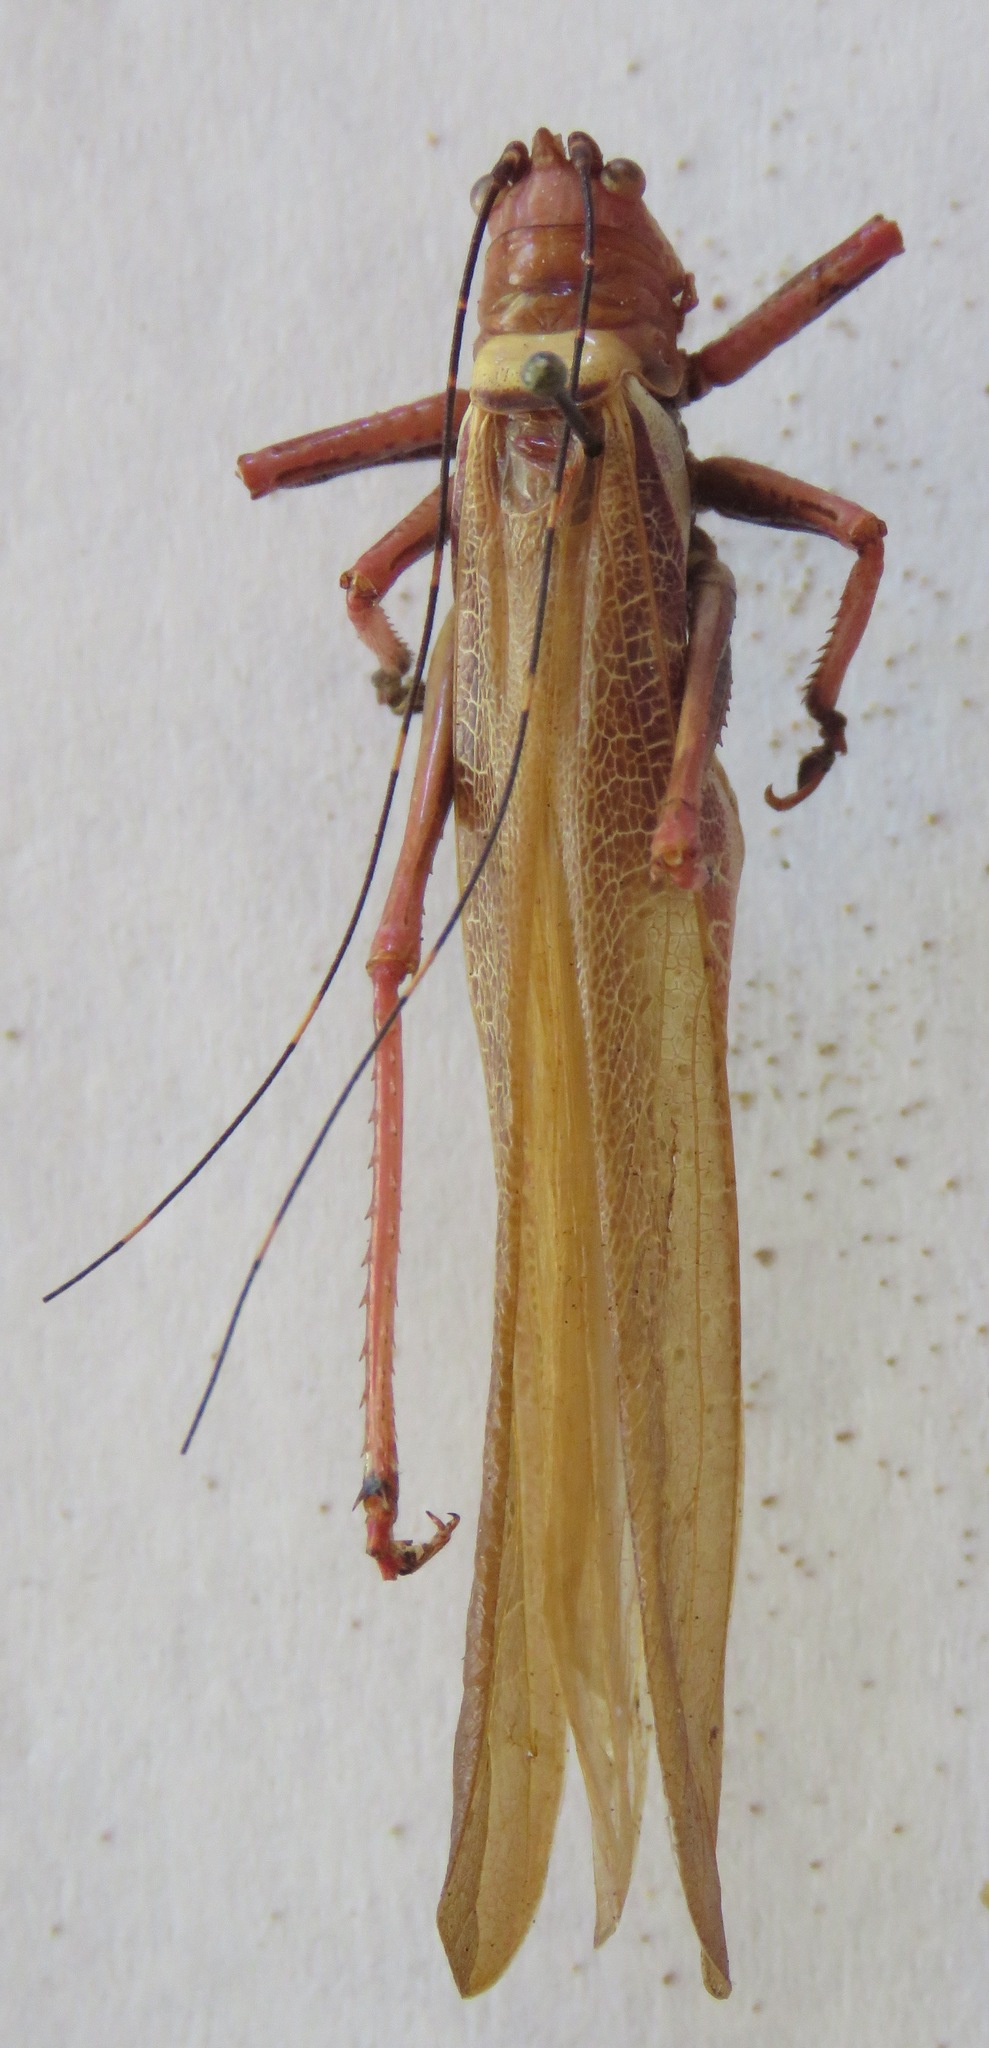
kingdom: Animalia
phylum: Arthropoda
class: Insecta
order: Orthoptera
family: Tettigoniidae
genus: Moncheca
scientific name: Moncheca elegans
